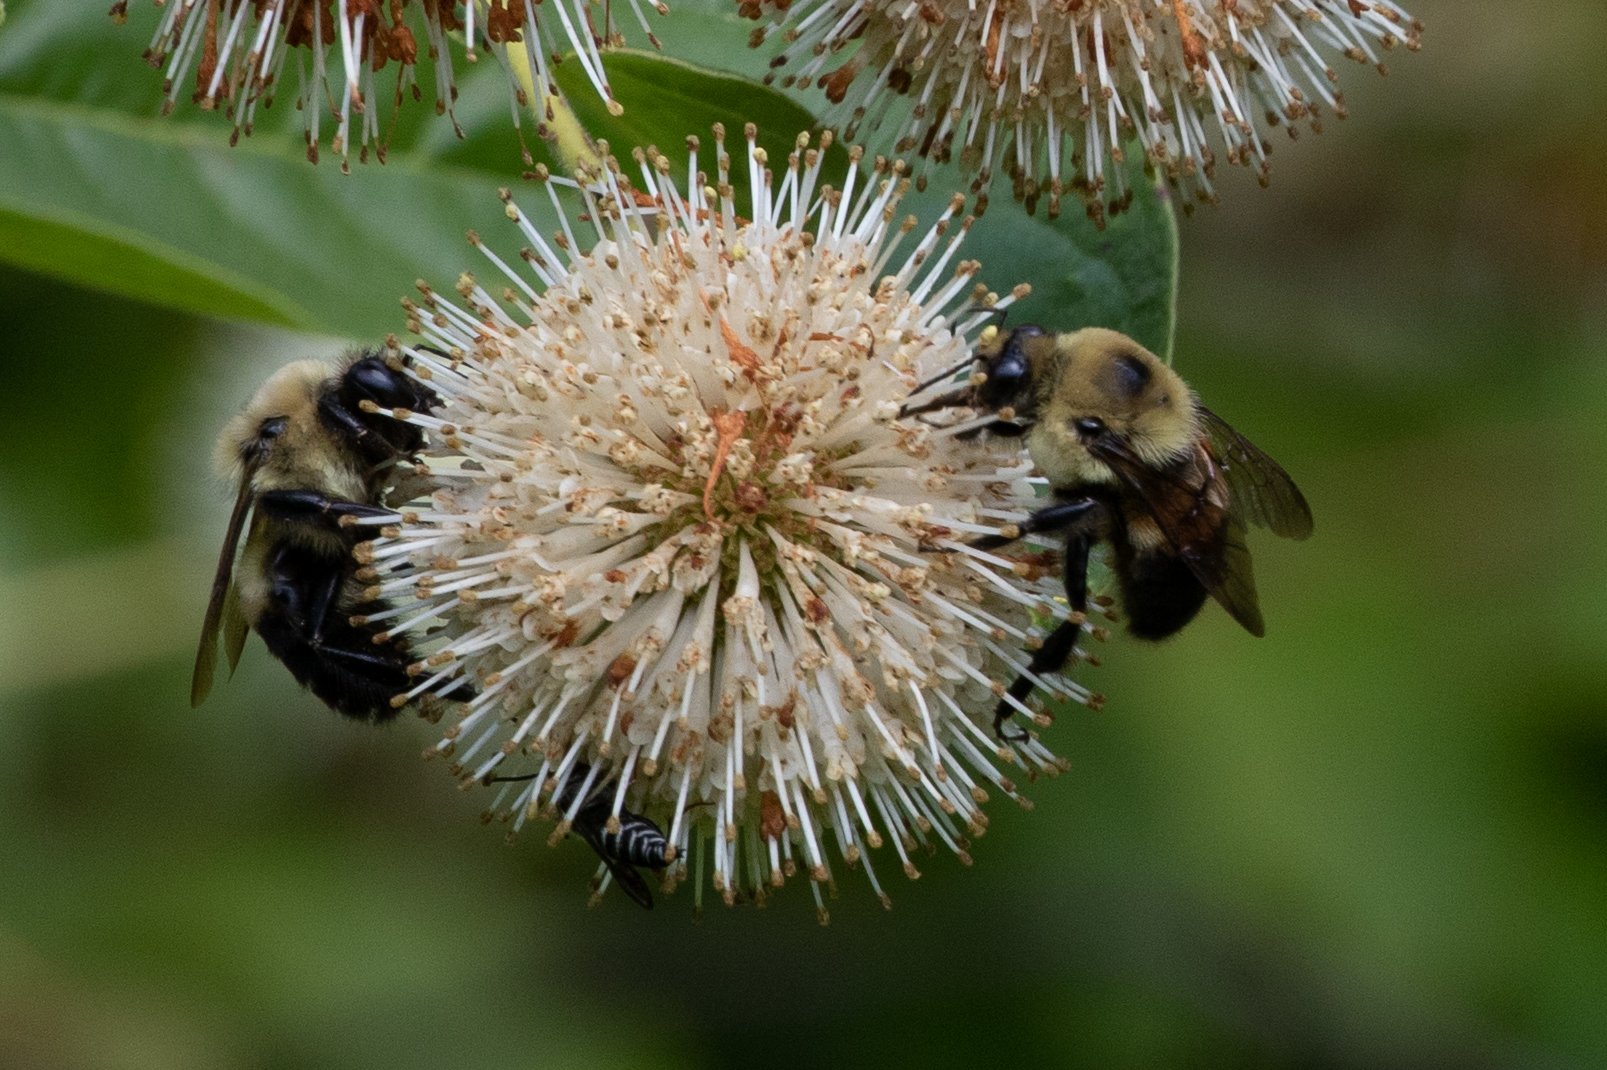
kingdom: Animalia
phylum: Arthropoda
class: Insecta
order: Hymenoptera
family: Apidae
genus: Bombus
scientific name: Bombus griseocollis
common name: Brown-belted bumble bee
